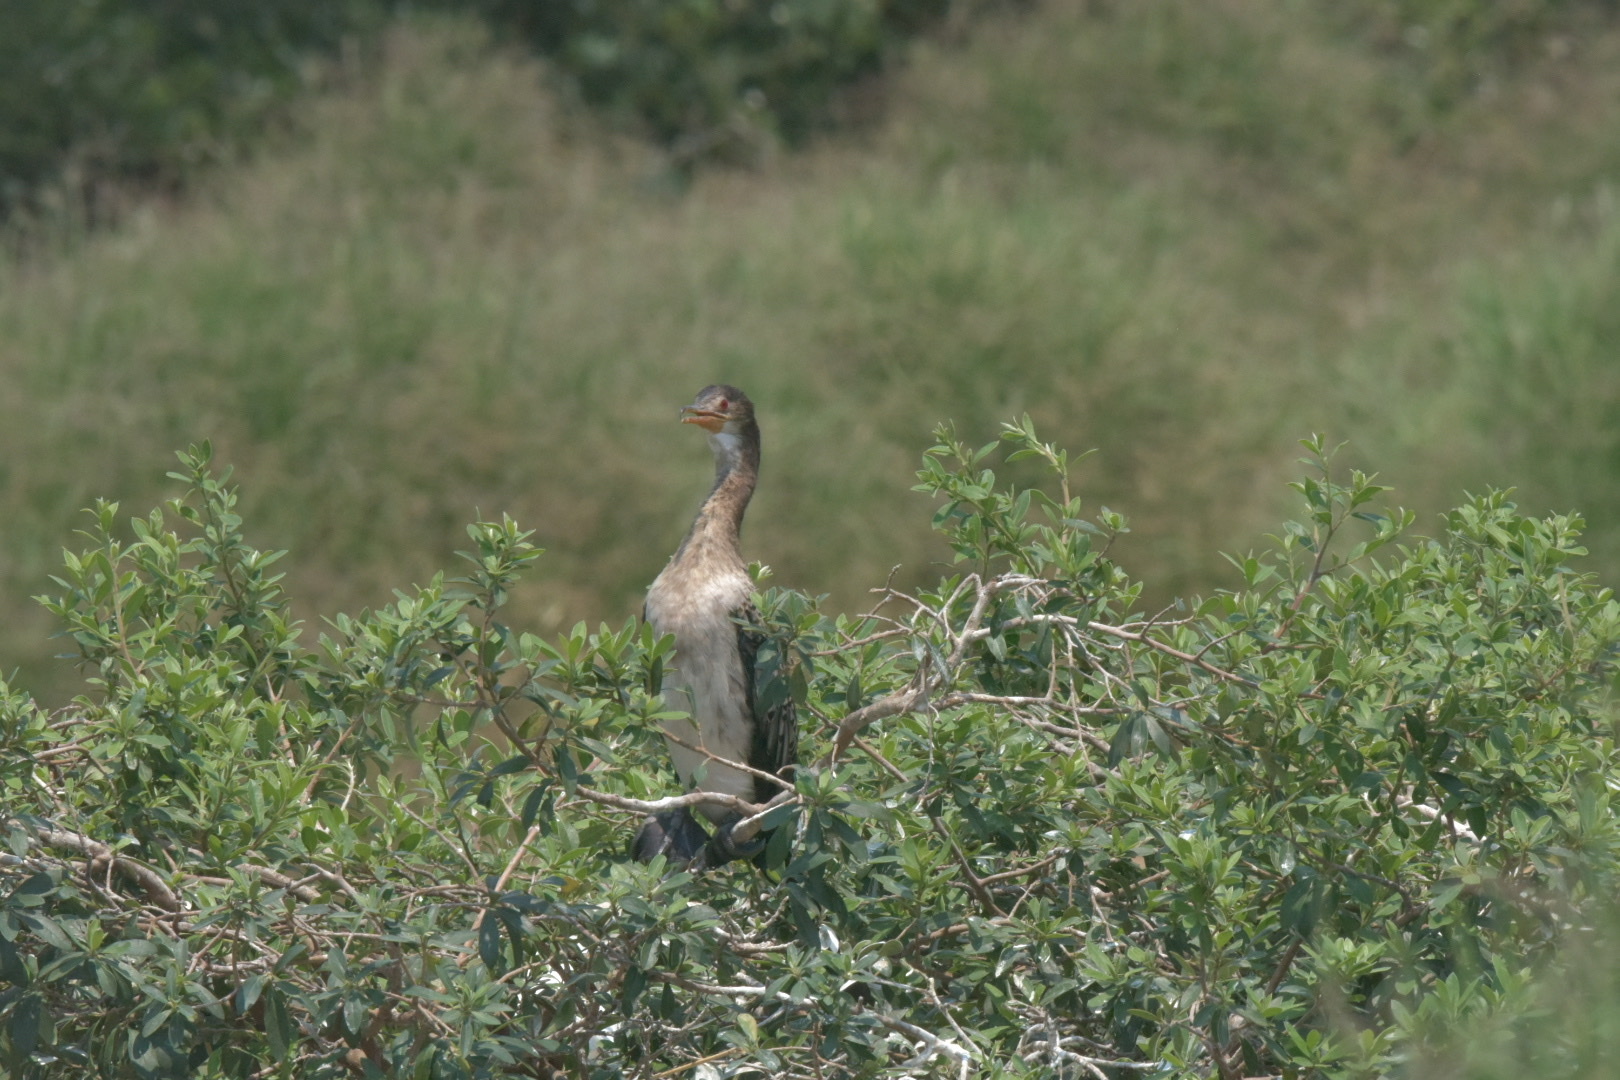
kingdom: Animalia
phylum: Chordata
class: Aves
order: Suliformes
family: Phalacrocoracidae
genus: Microcarbo
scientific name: Microcarbo africanus
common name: Long-tailed cormorant
